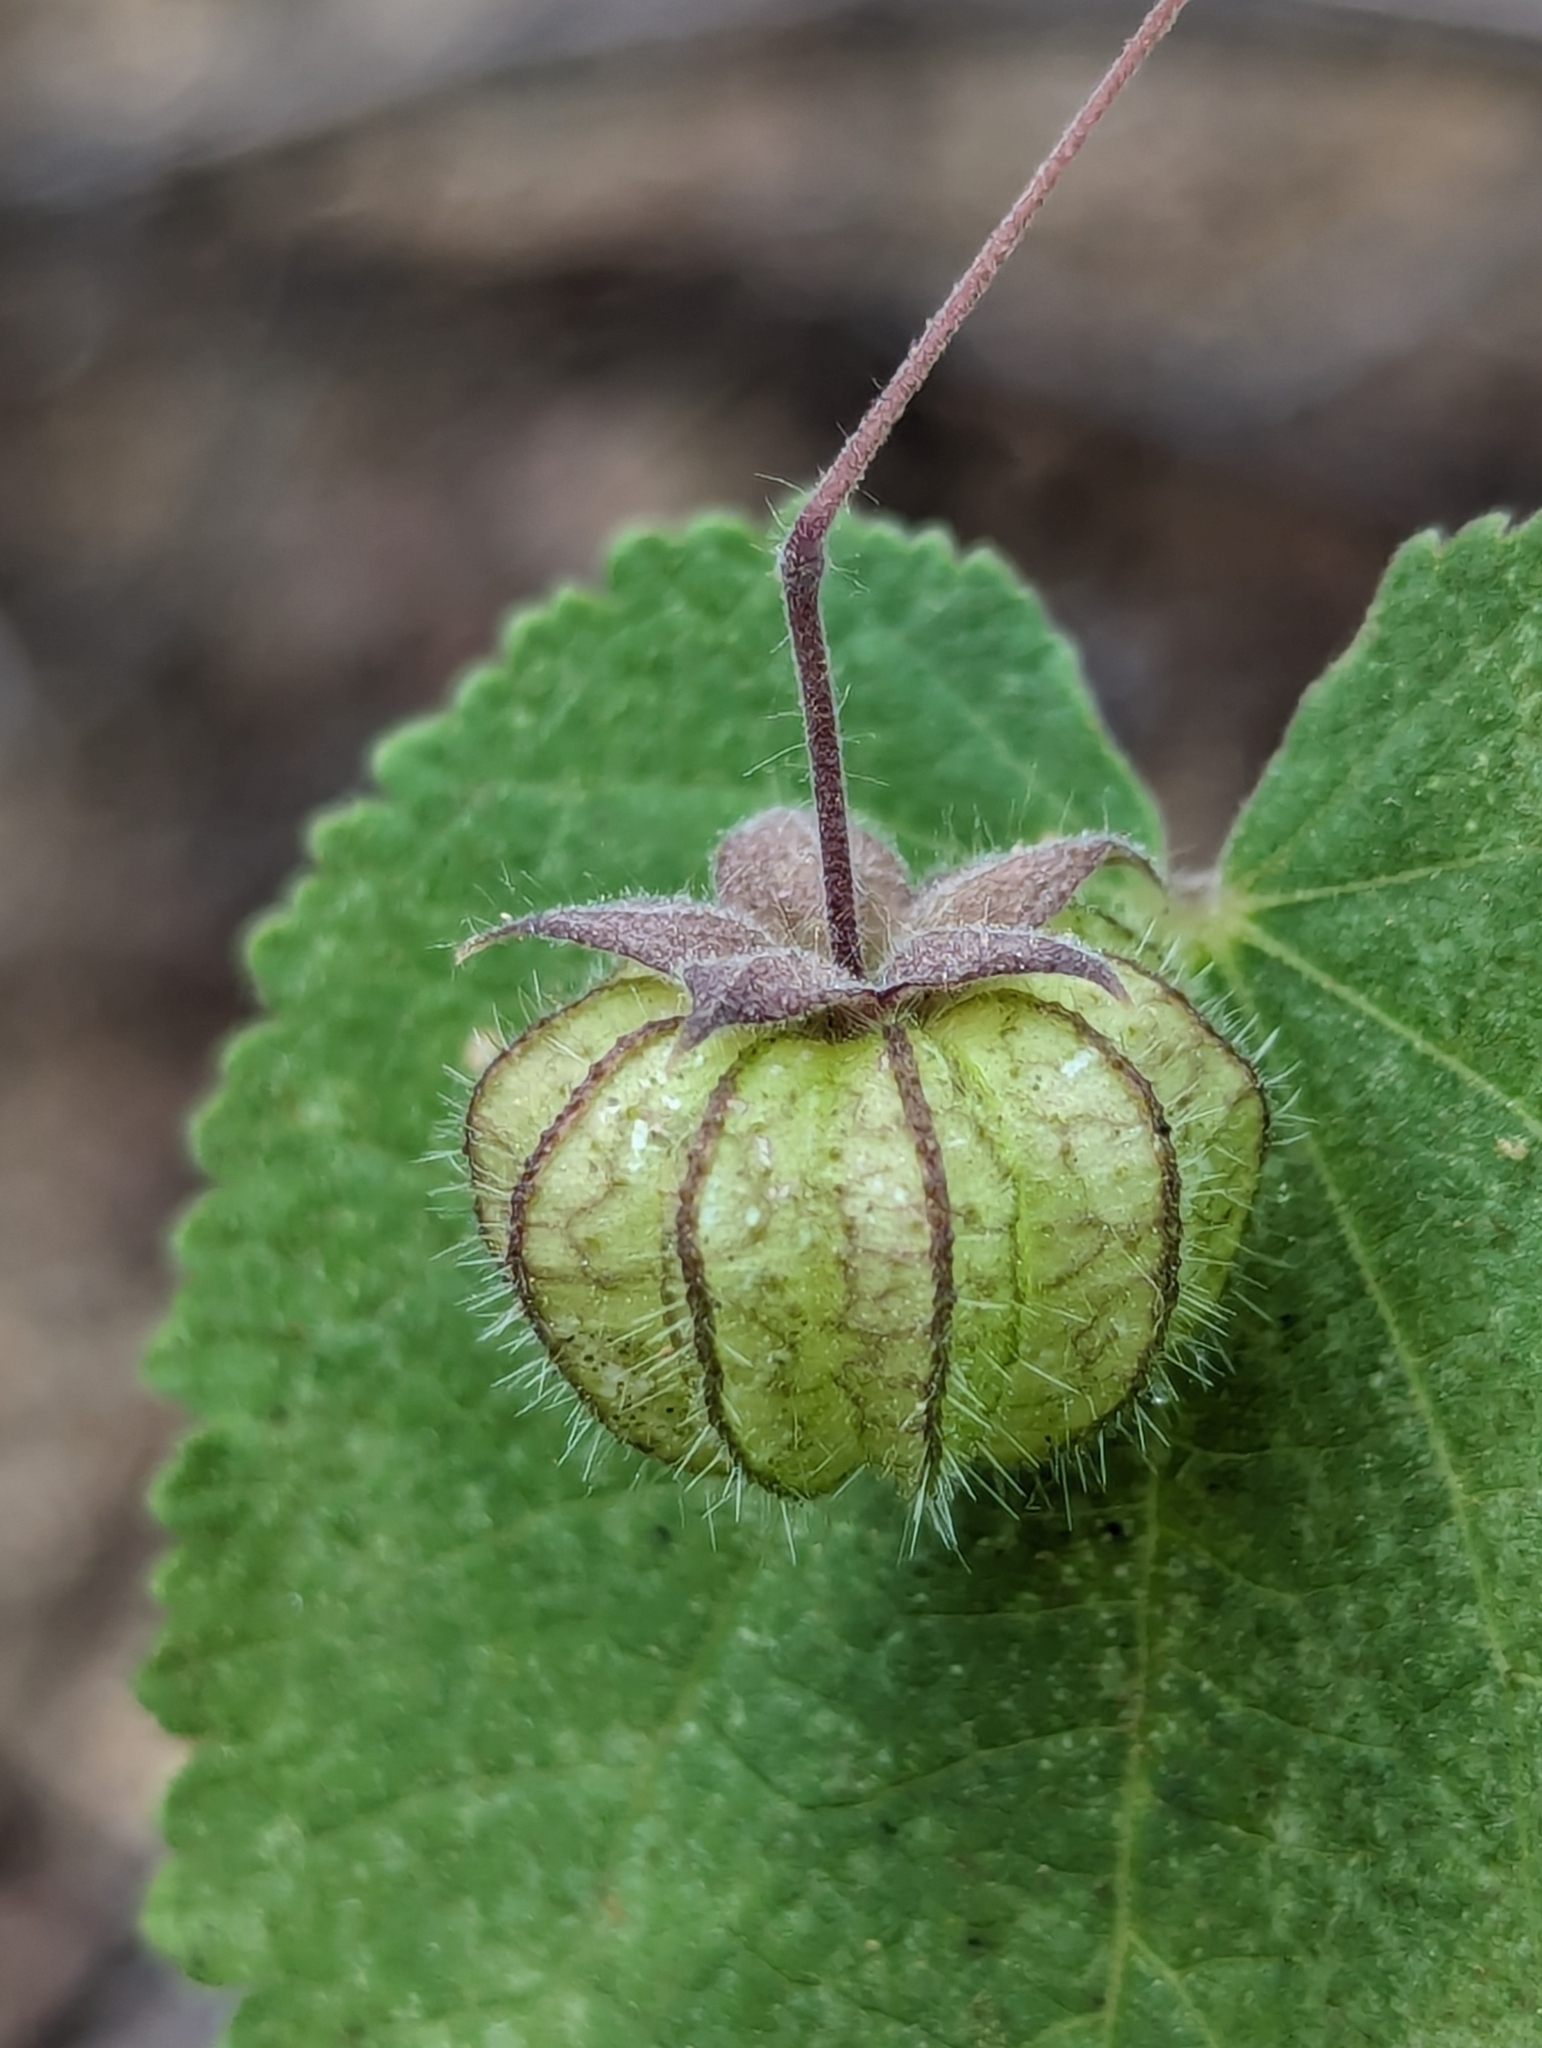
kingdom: Plantae
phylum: Tracheophyta
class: Magnoliopsida
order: Malvales
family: Malvaceae
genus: Herissantia
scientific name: Herissantia crispa
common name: Bladdermallow
